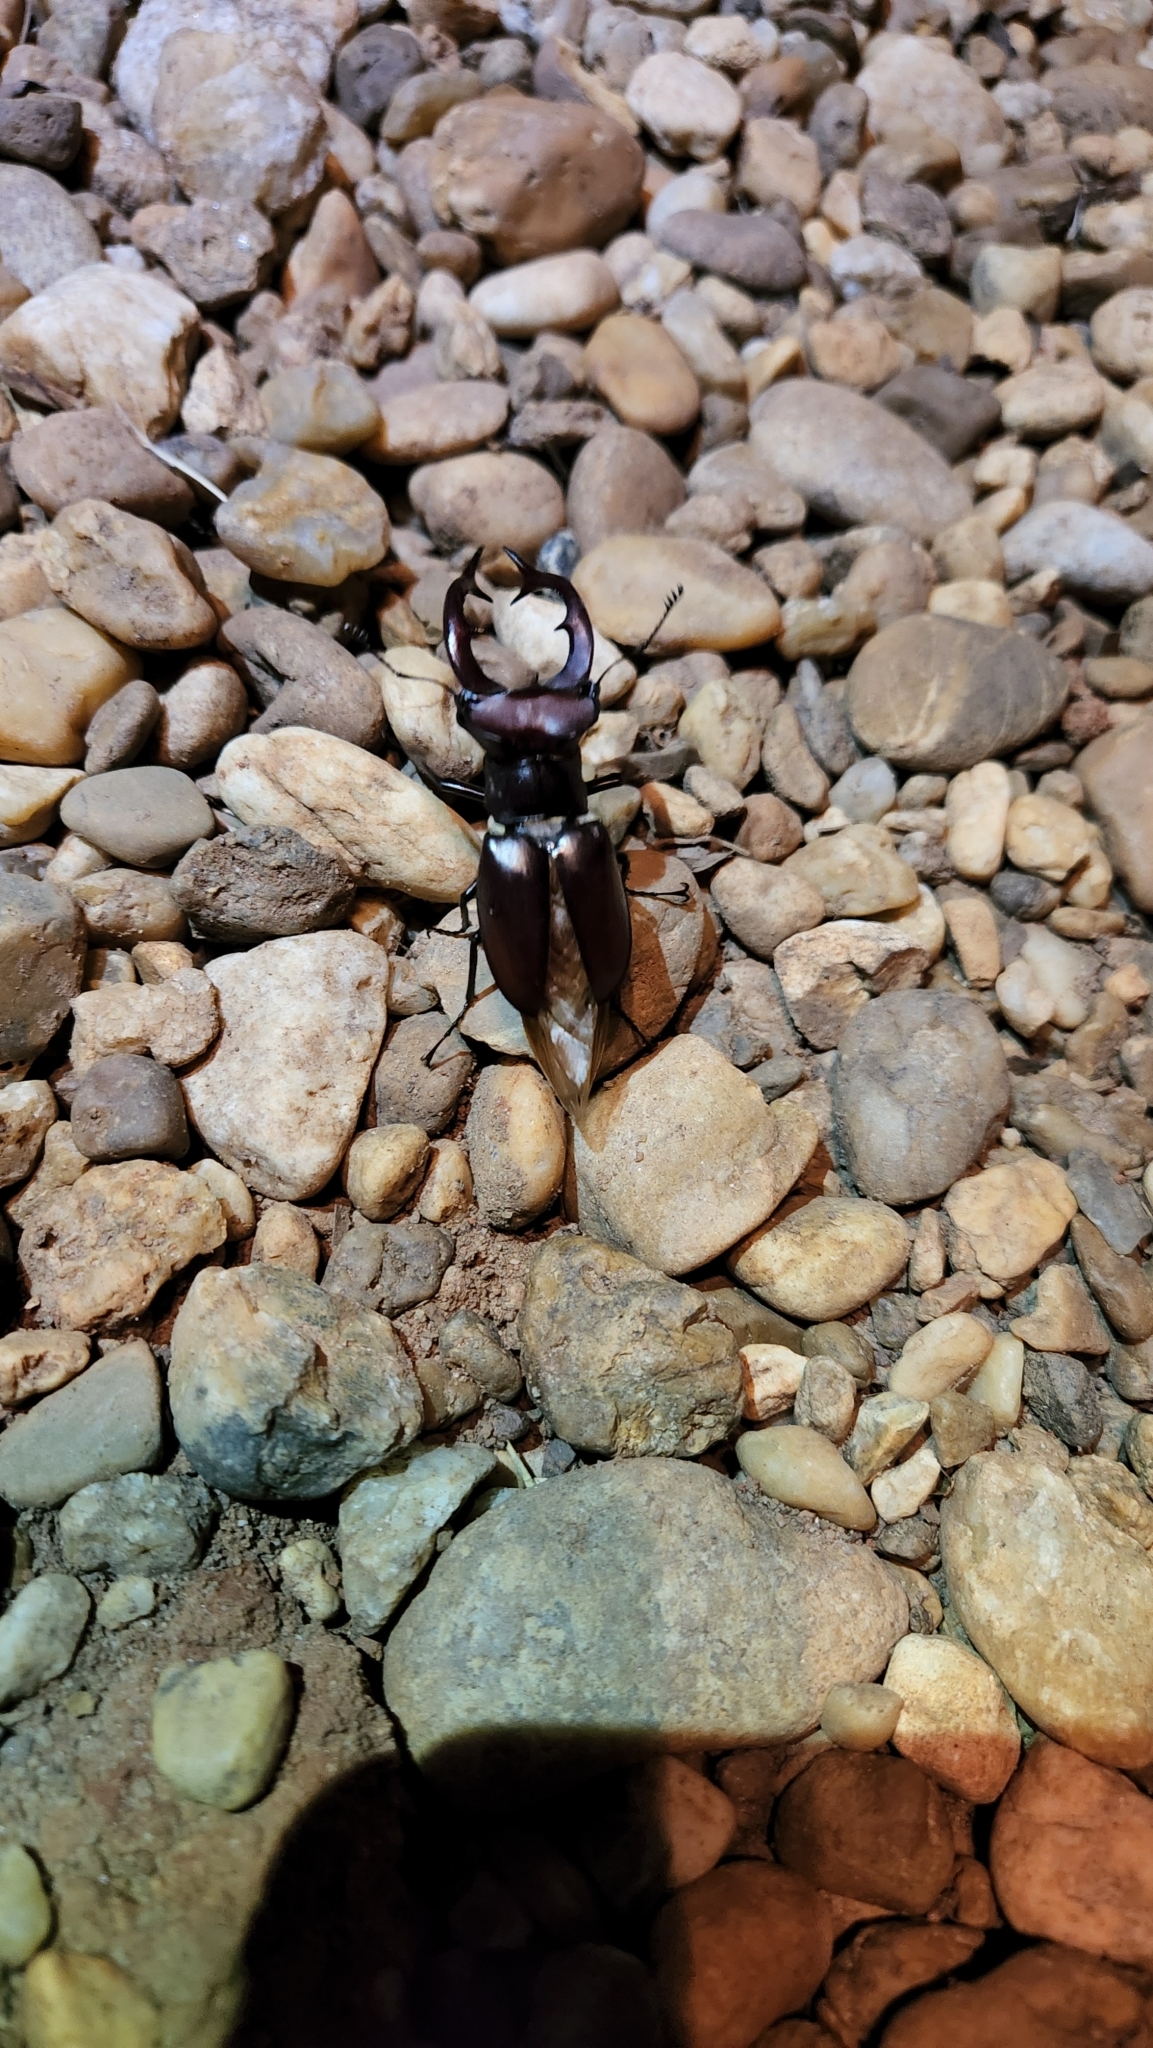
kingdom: Animalia
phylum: Arthropoda
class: Insecta
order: Coleoptera
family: Lucanidae
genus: Lucanus
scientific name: Lucanus elaphus
